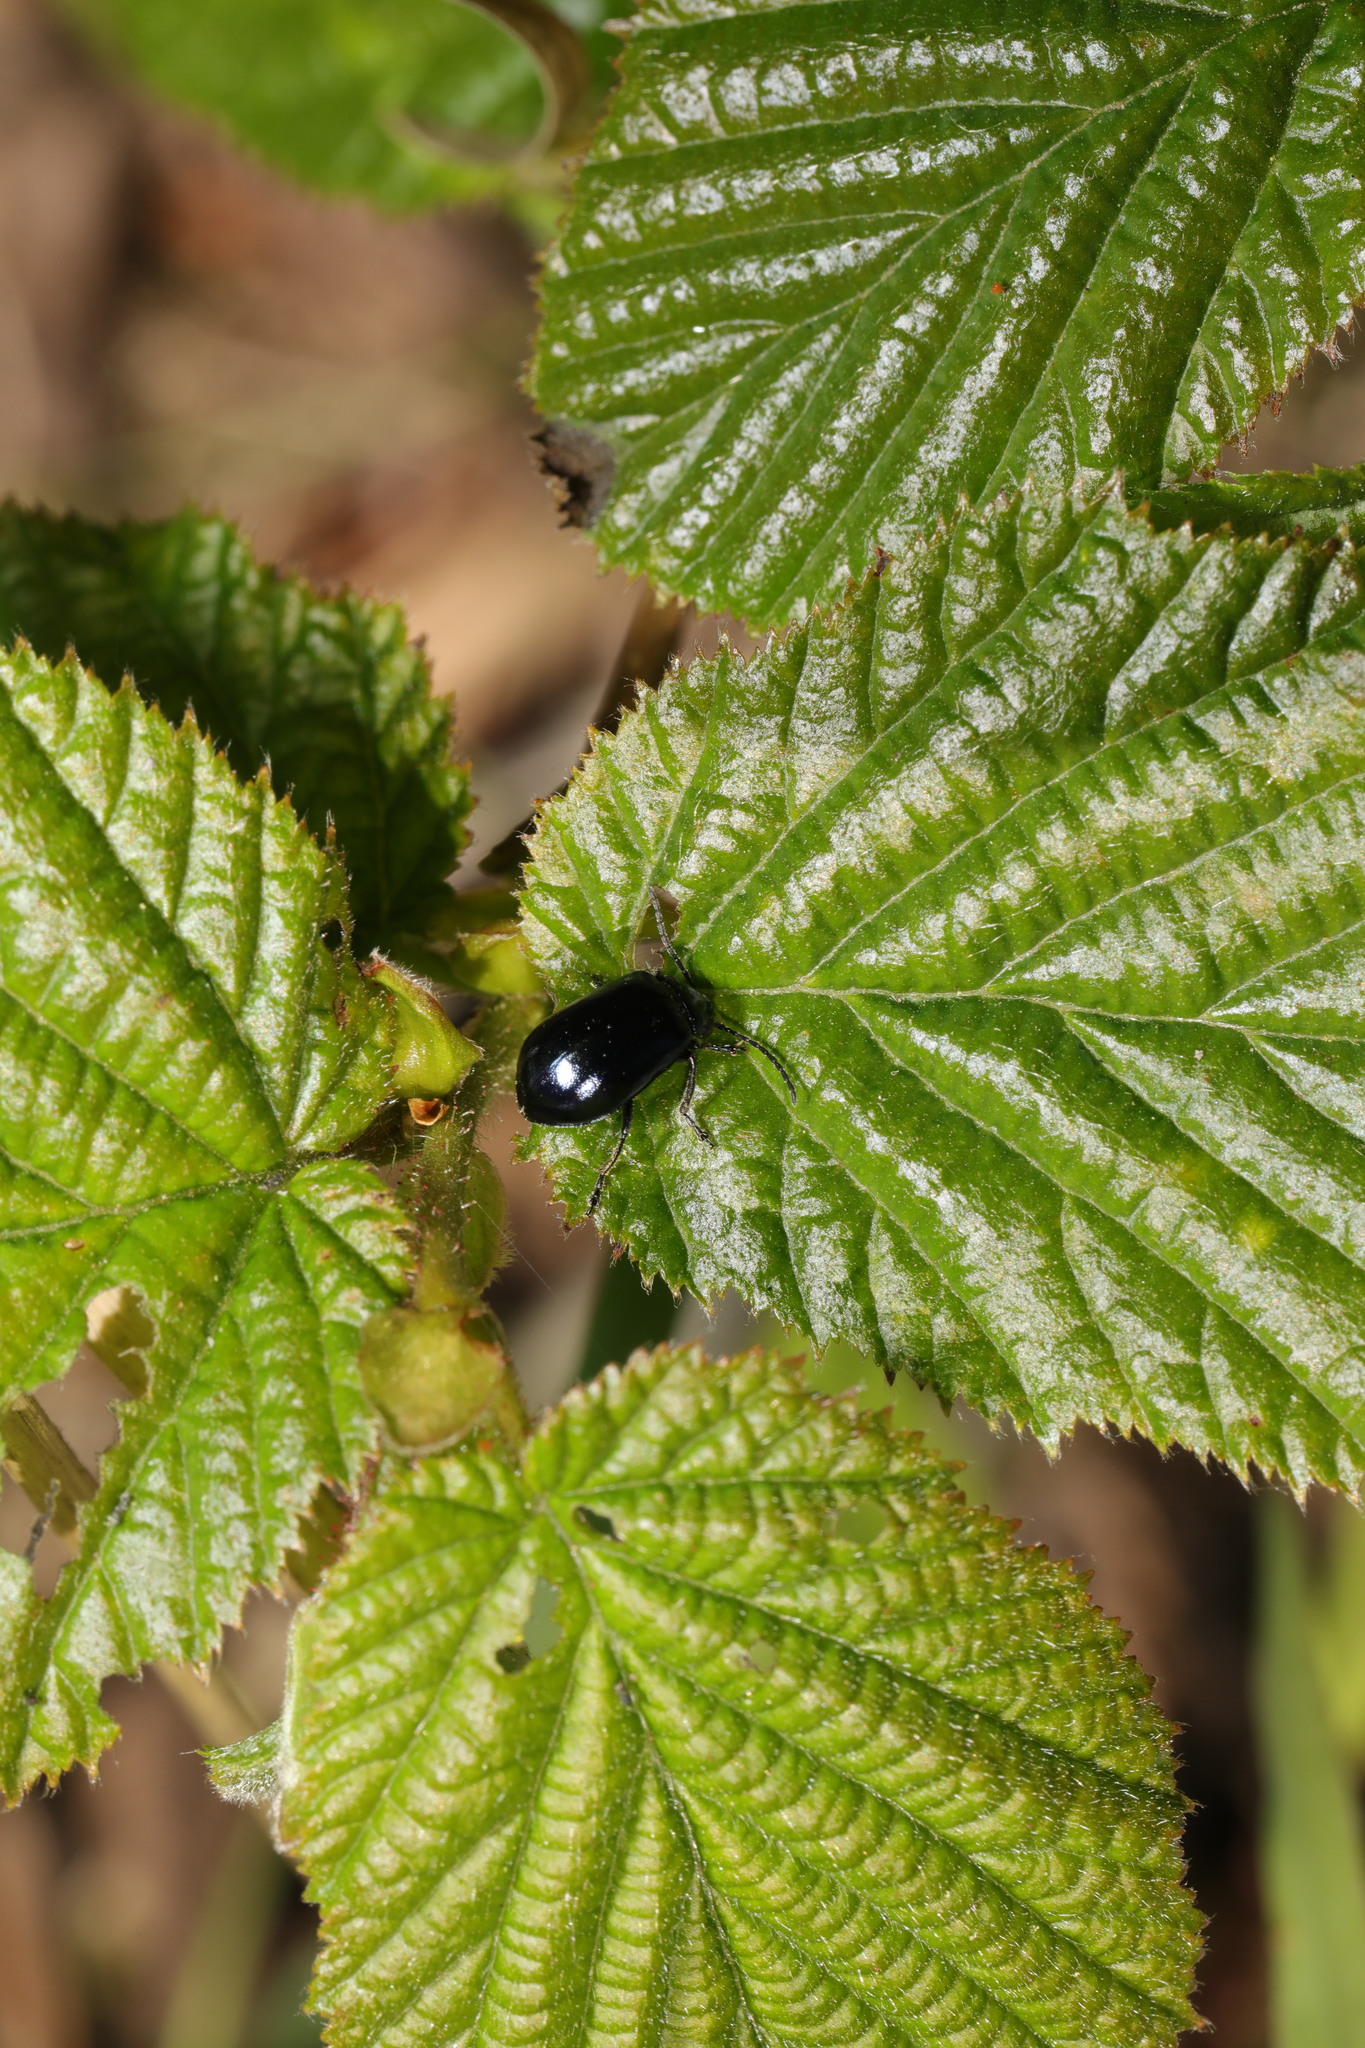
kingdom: Animalia
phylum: Arthropoda
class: Insecta
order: Coleoptera
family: Chrysomelidae
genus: Agelastica
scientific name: Agelastica alni
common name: Alder leaf beetle
